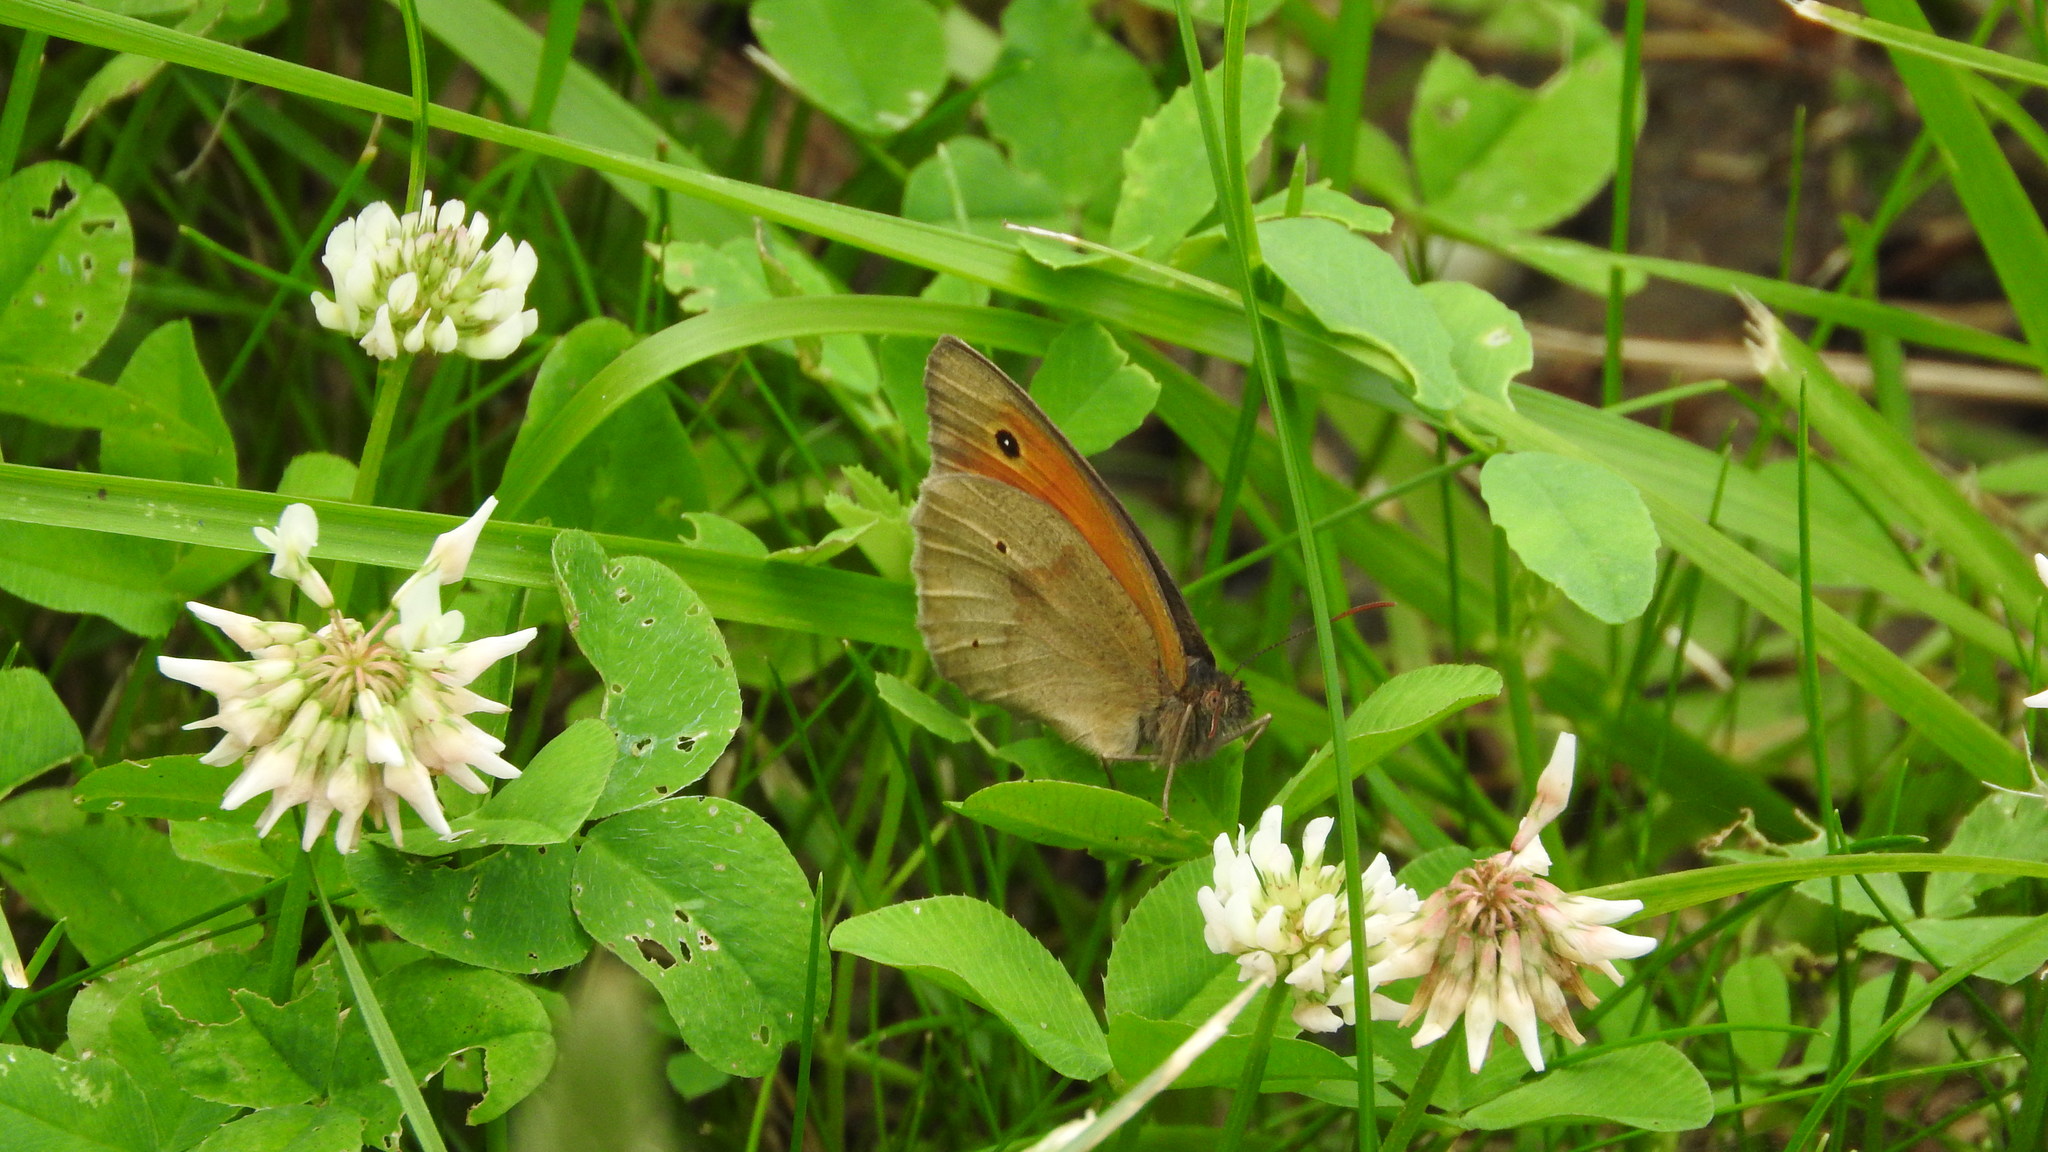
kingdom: Animalia
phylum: Arthropoda
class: Insecta
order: Lepidoptera
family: Nymphalidae
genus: Maniola
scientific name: Maniola jurtina
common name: Meadow brown
